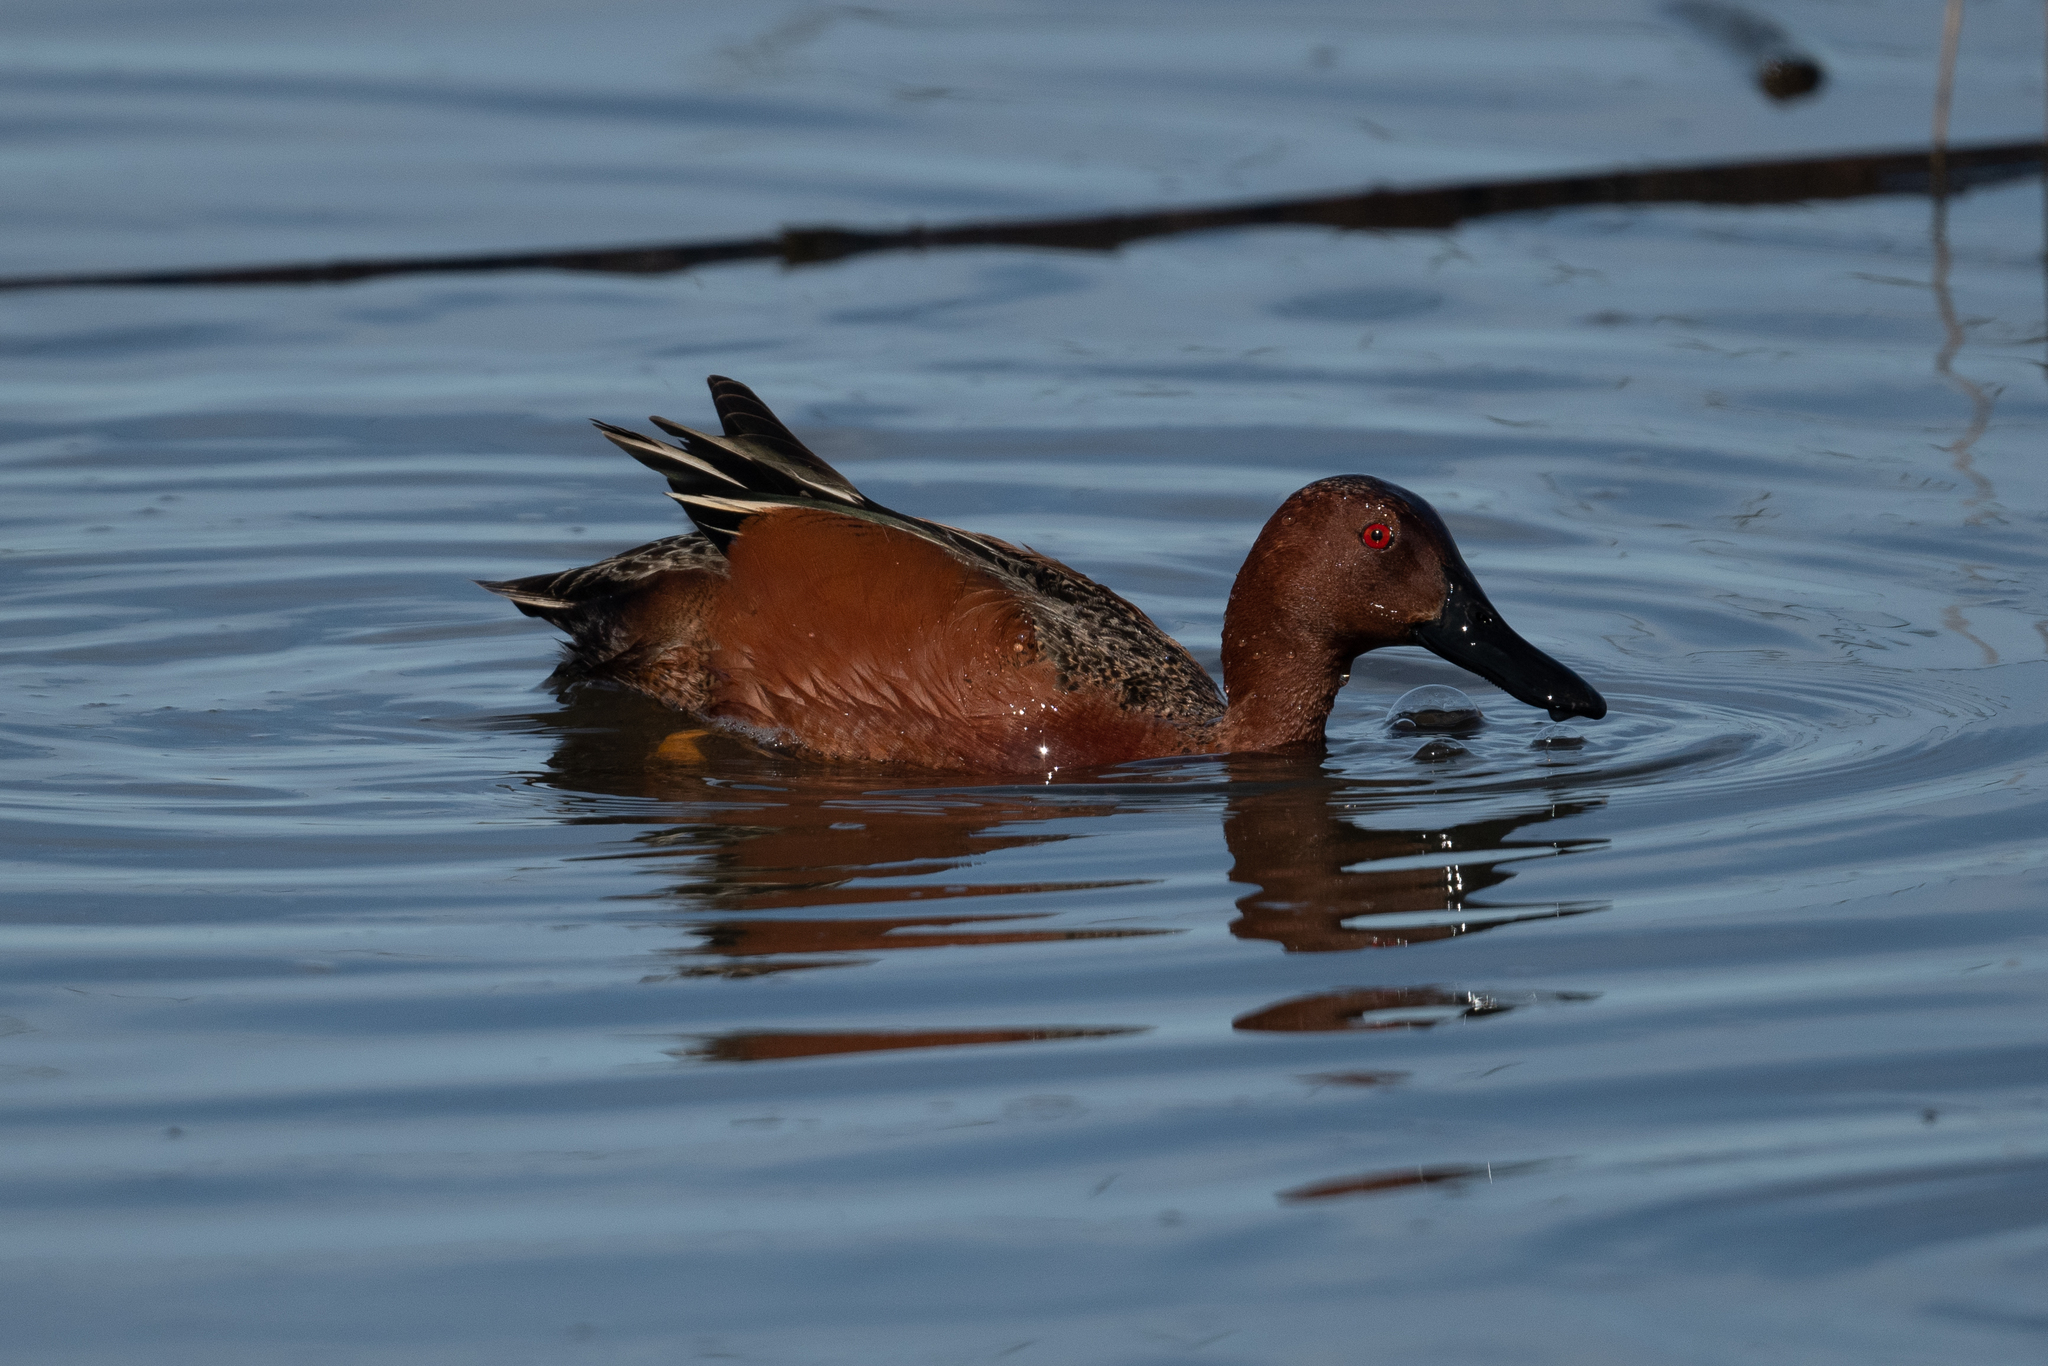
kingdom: Animalia
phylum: Chordata
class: Aves
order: Anseriformes
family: Anatidae
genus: Spatula
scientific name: Spatula cyanoptera
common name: Cinnamon teal
